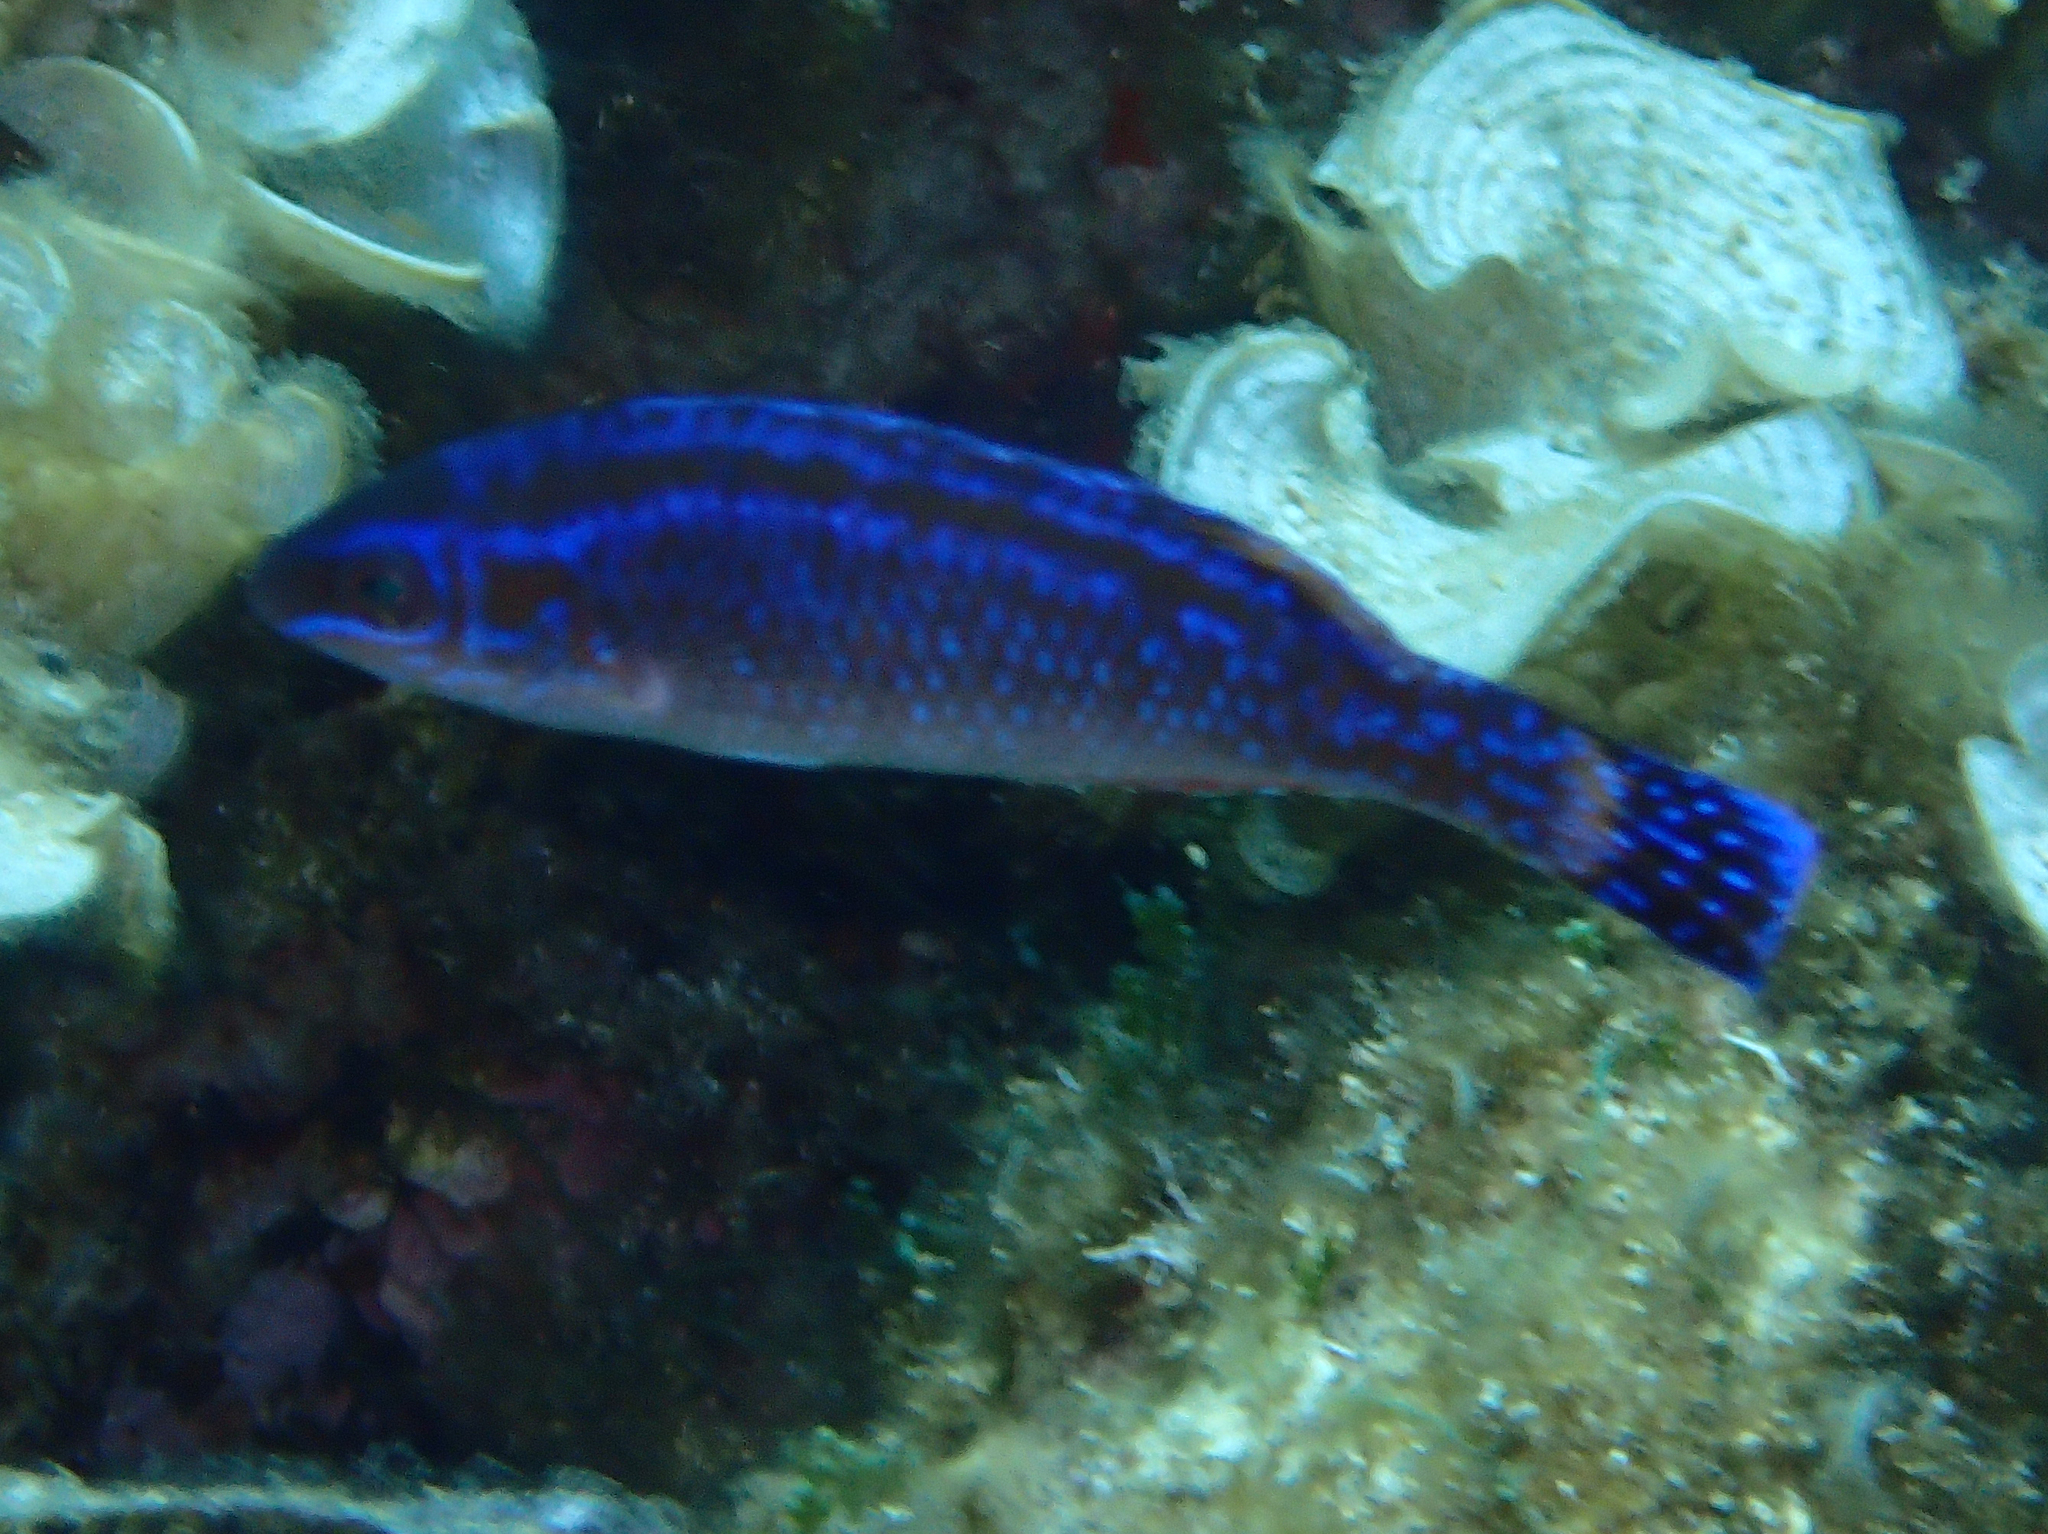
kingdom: Animalia
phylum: Chordata
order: Perciformes
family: Labridae
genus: Centrolabrus
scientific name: Centrolabrus melanocercus
